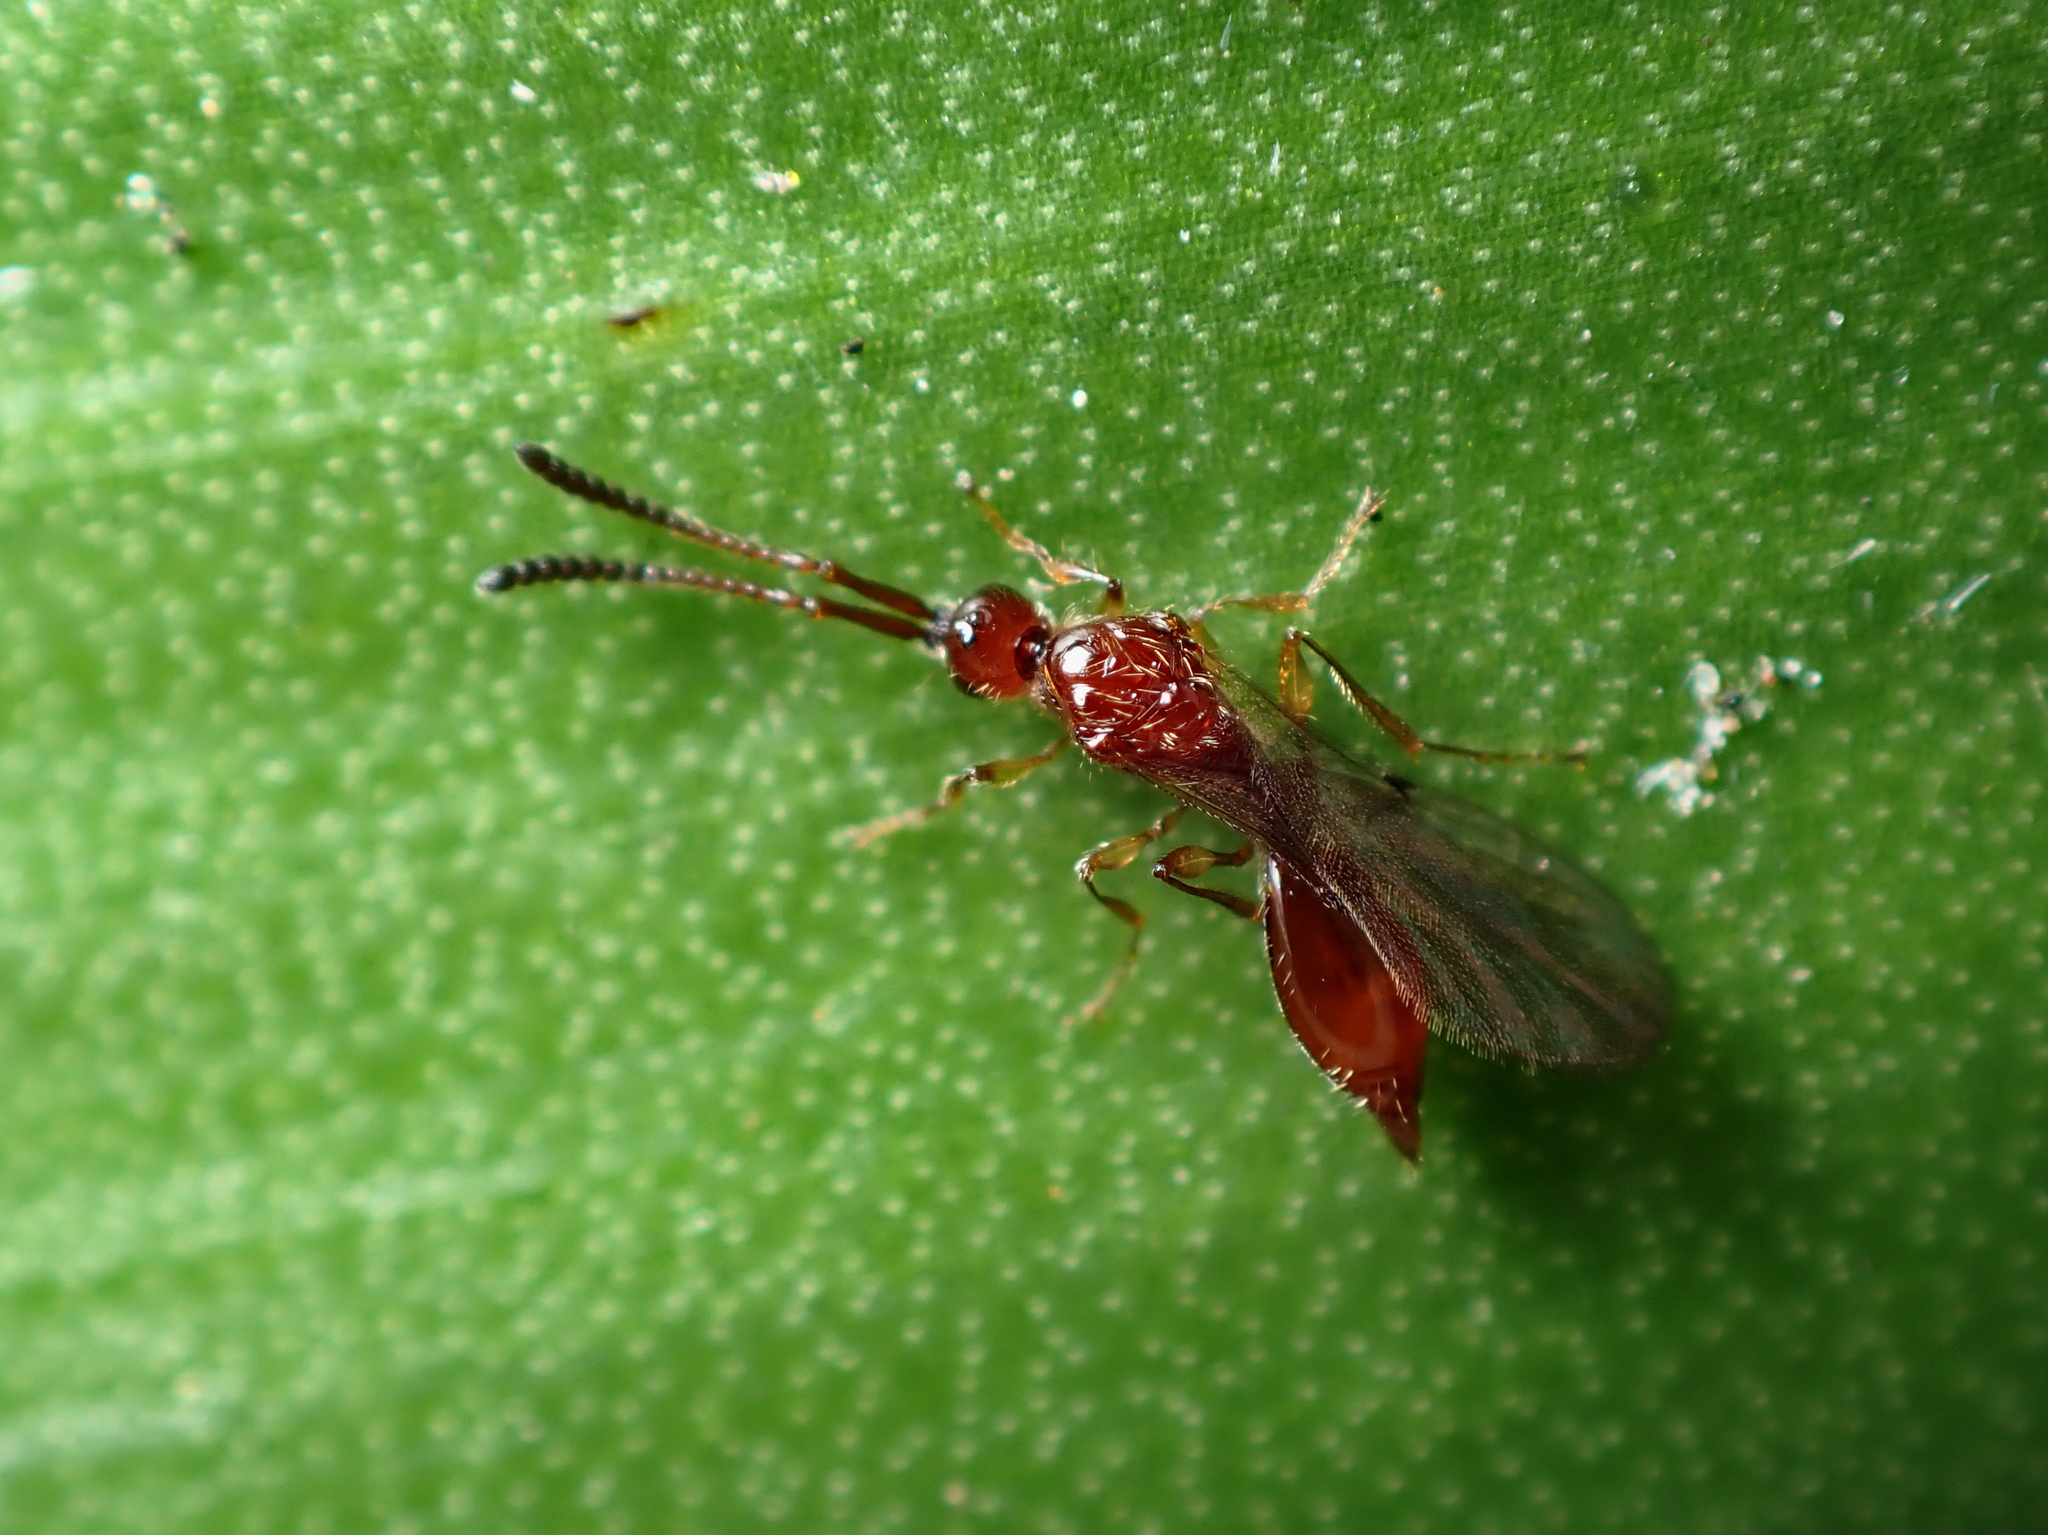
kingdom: Animalia
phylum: Arthropoda
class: Insecta
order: Hymenoptera
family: Diapriidae
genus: Diphoropria
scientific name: Diphoropria kuscheli
